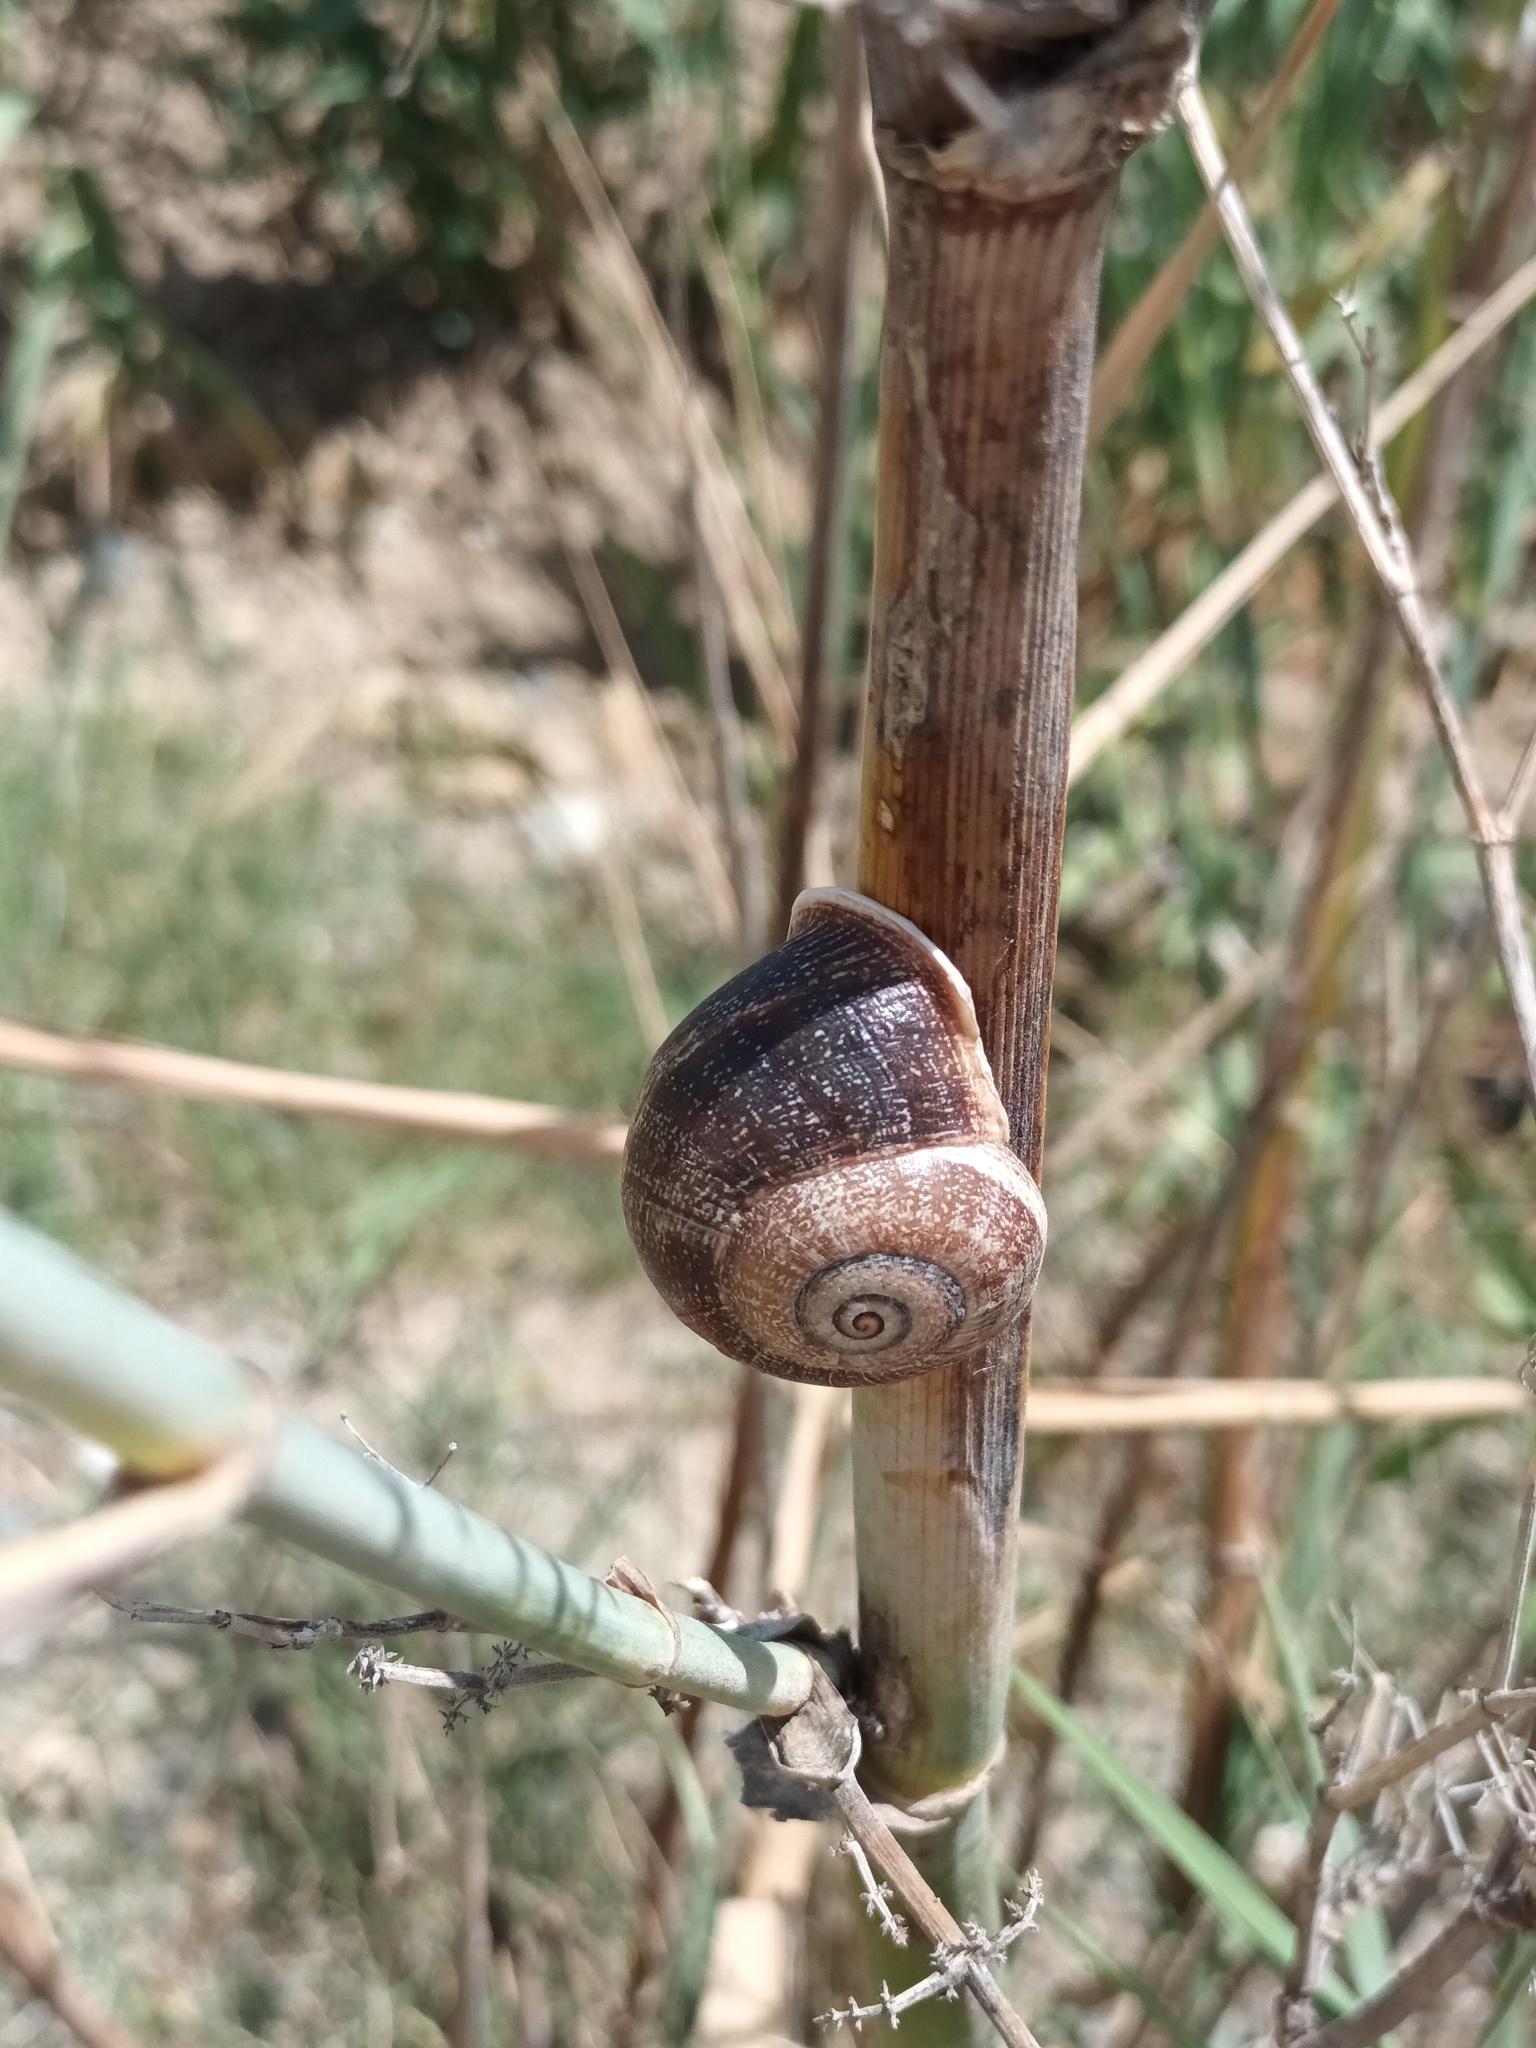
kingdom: Animalia
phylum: Mollusca
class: Gastropoda
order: Stylommatophora
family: Helicidae
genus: Otala
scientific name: Otala punctata
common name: Milk snail
